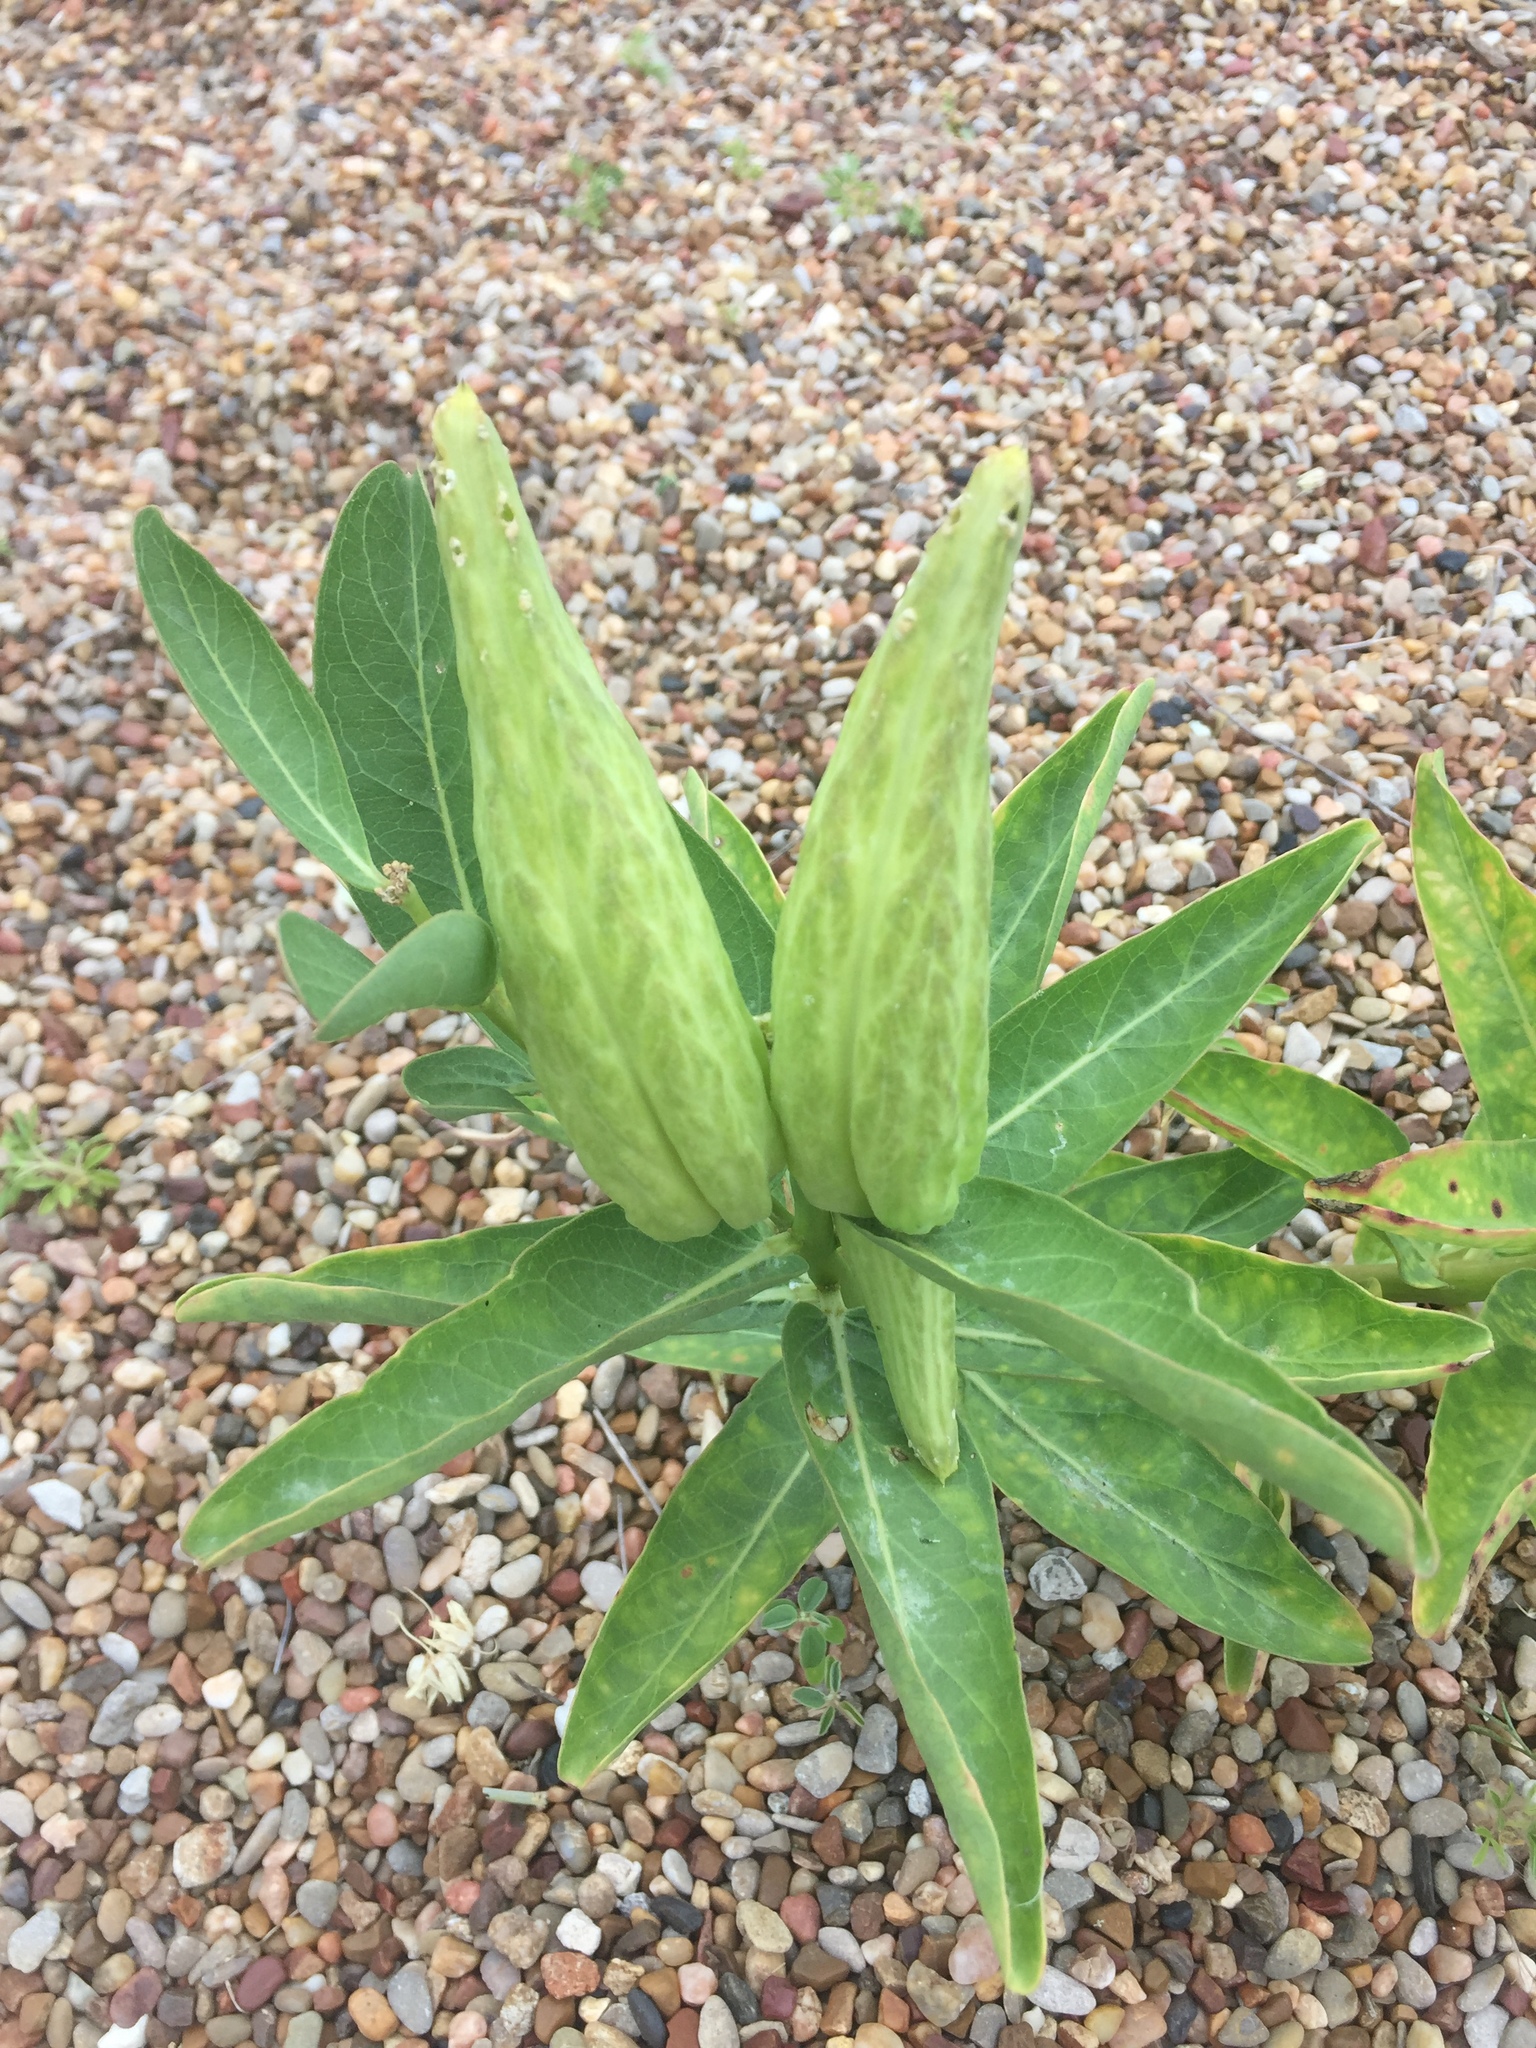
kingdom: Plantae
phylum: Tracheophyta
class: Magnoliopsida
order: Gentianales
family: Apocynaceae
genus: Asclepias
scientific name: Asclepias viridis
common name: Antelope-horns
